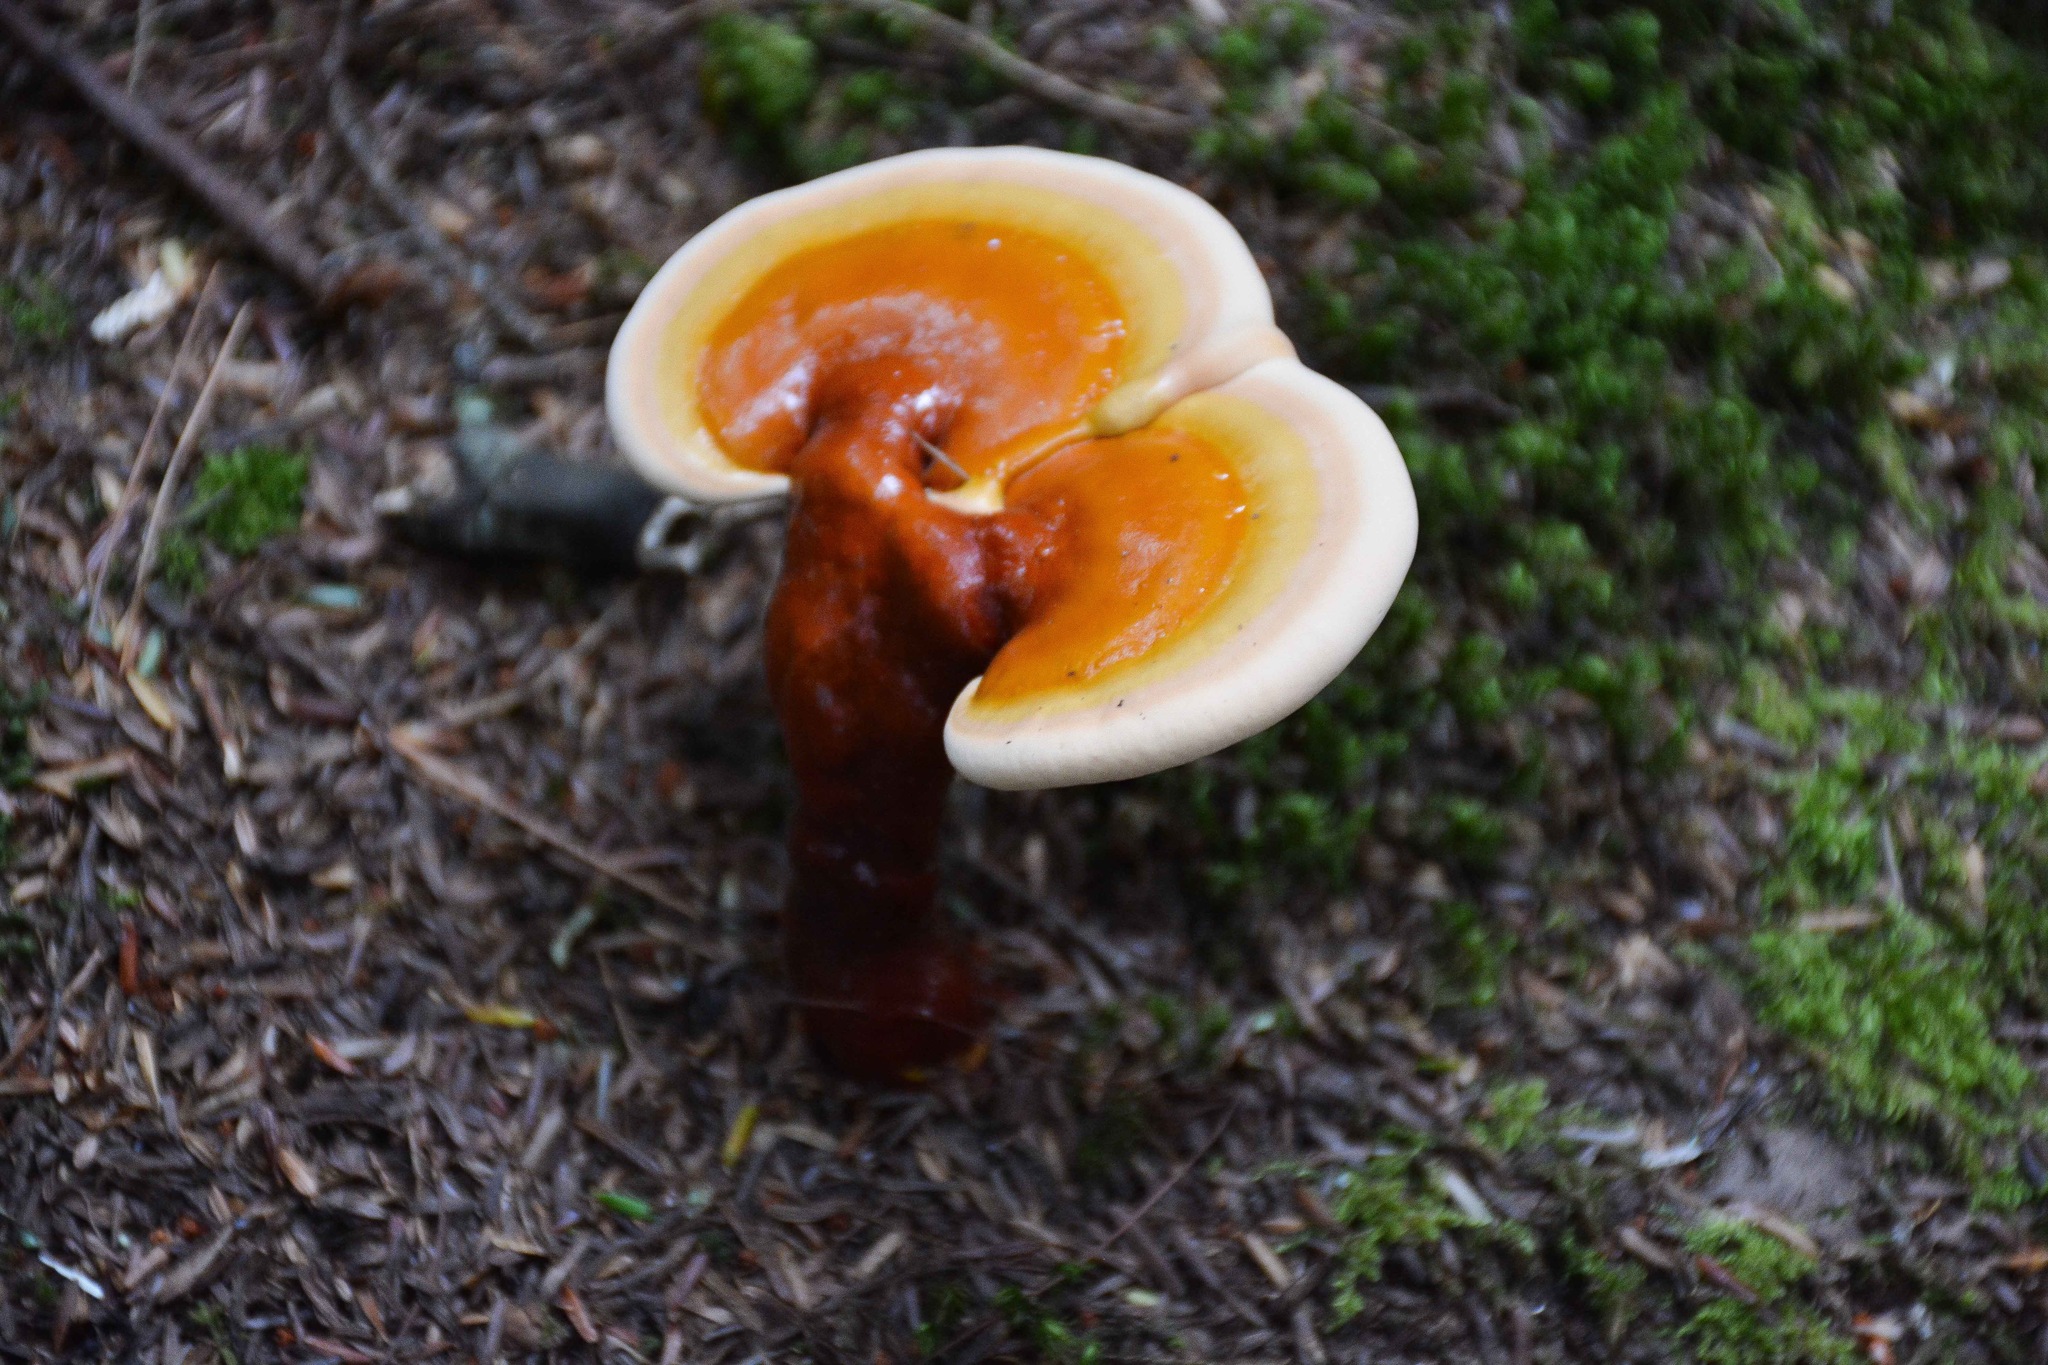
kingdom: Fungi
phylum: Basidiomycota
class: Agaricomycetes
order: Polyporales
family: Polyporaceae
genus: Ganoderma
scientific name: Ganoderma tsugae
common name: Hemlock varnish shelf
